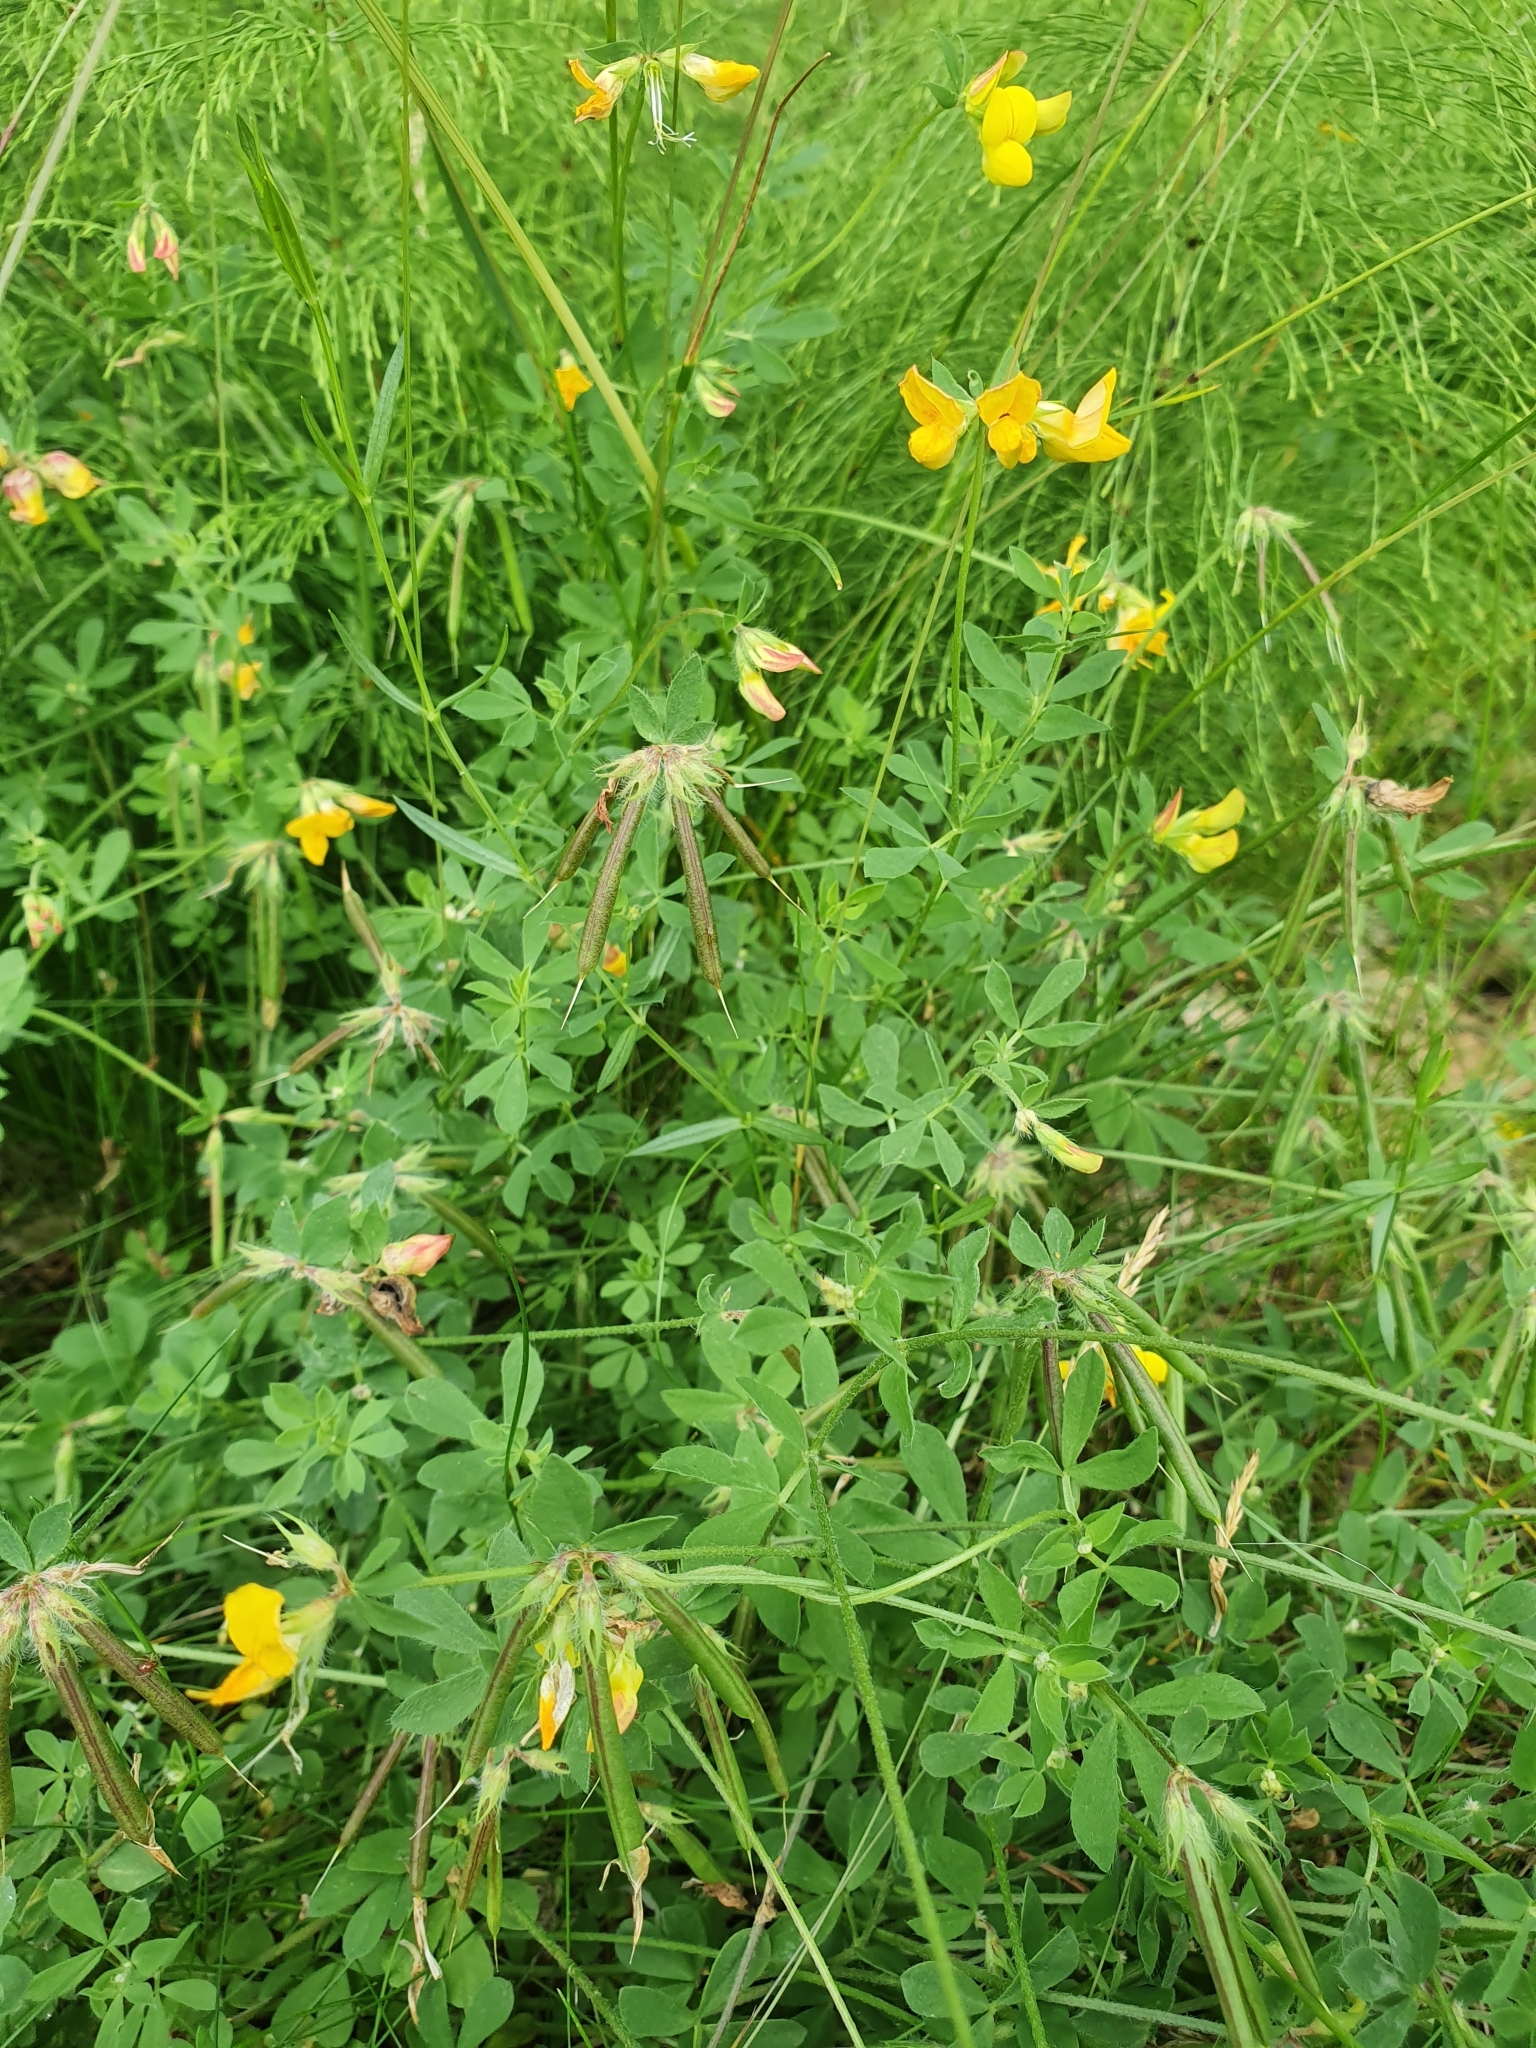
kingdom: Plantae
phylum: Tracheophyta
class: Magnoliopsida
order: Fabales
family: Fabaceae
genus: Lotus
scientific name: Lotus corniculatus
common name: Common bird's-foot-trefoil
